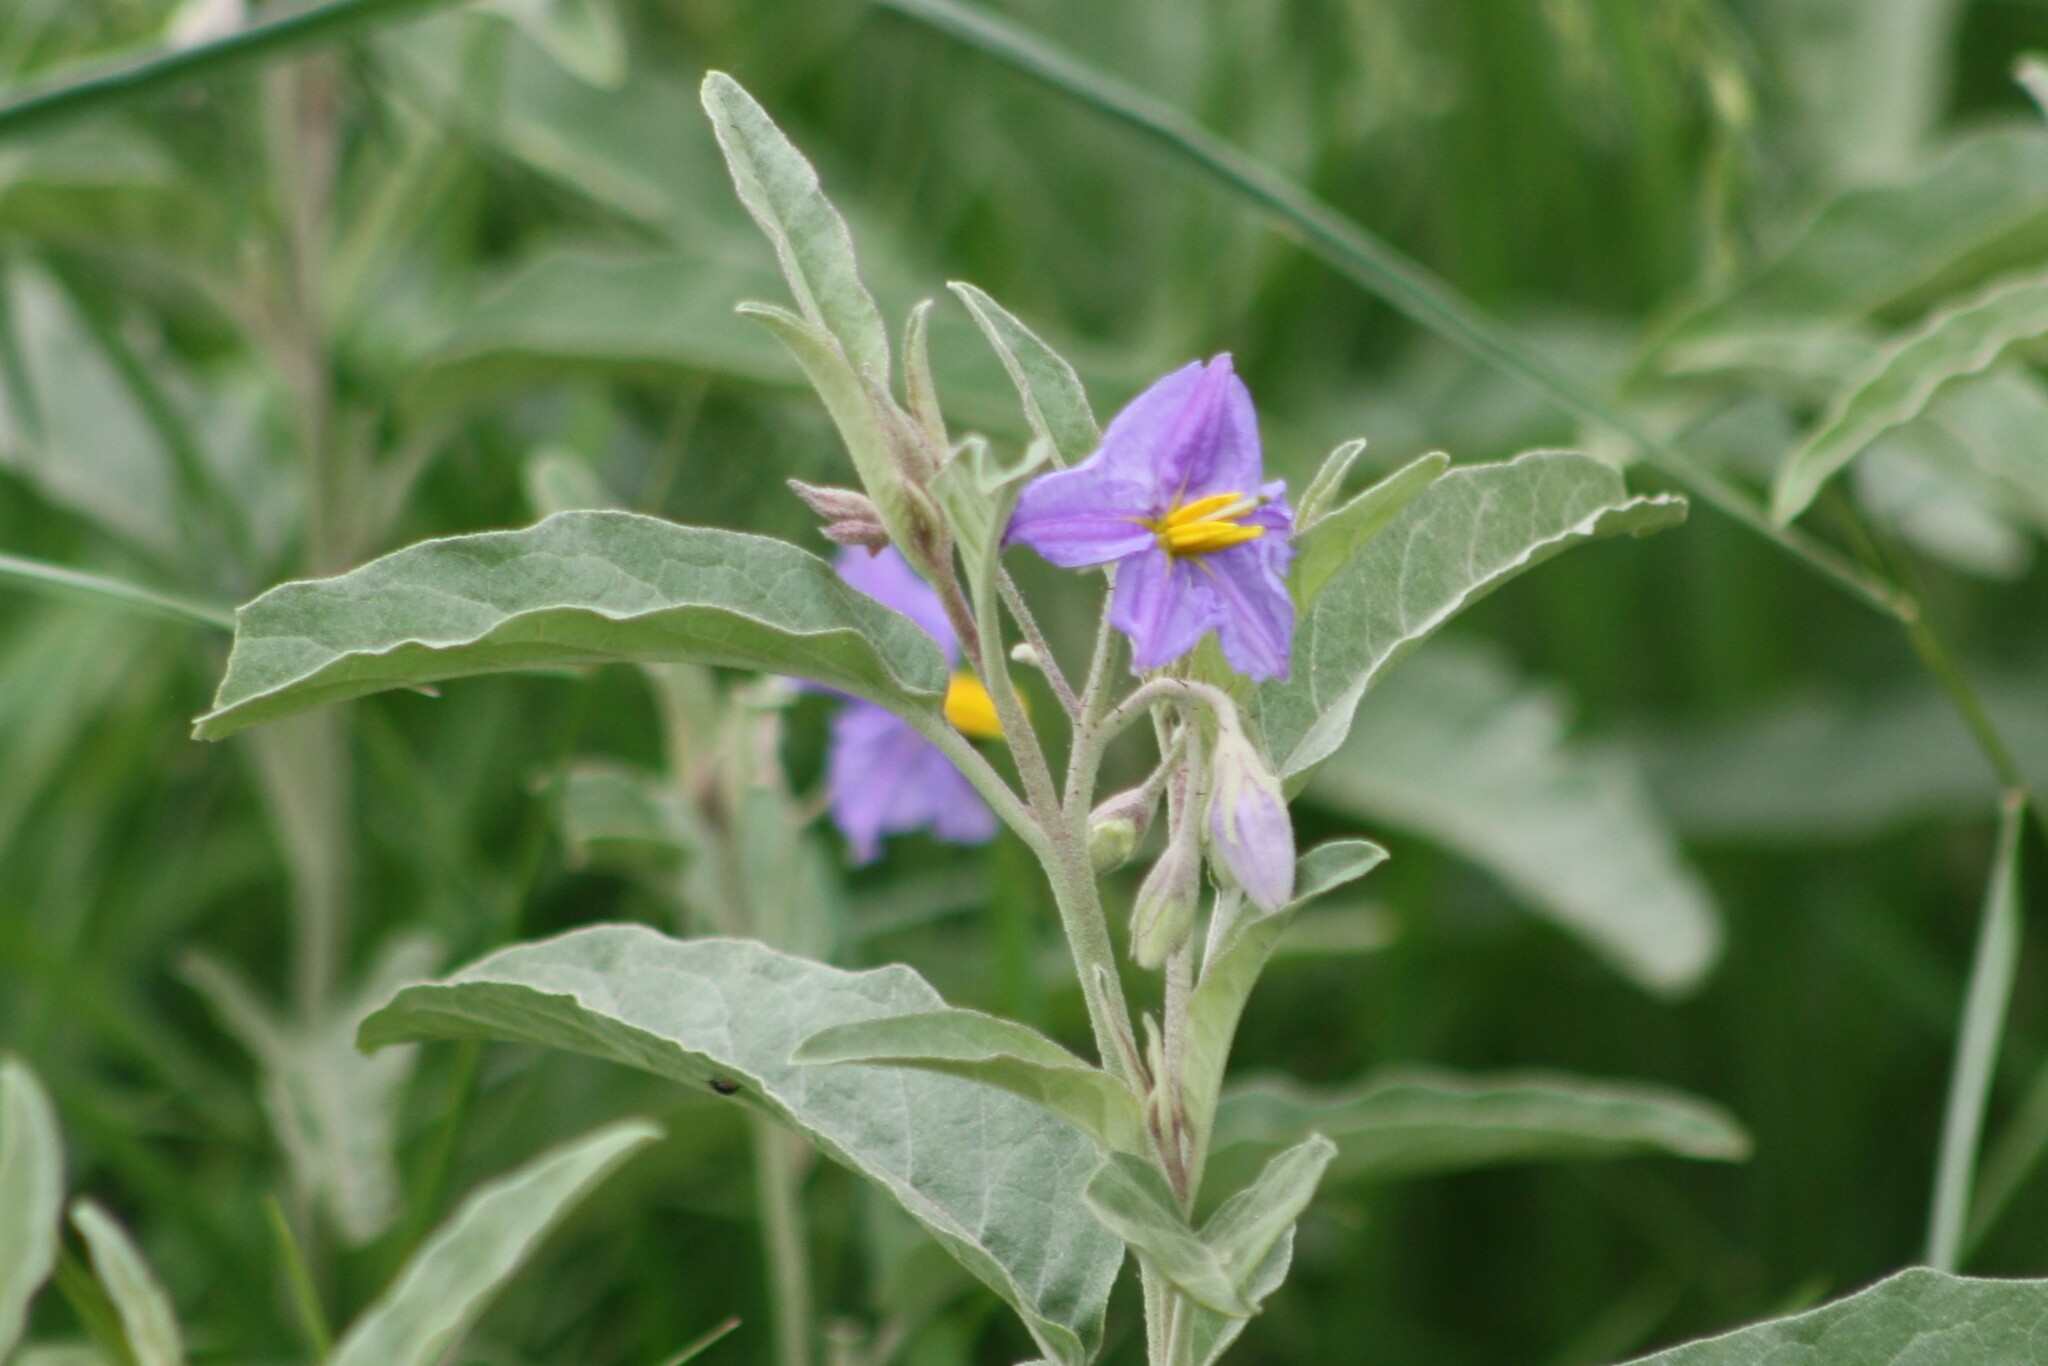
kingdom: Plantae
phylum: Tracheophyta
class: Magnoliopsida
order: Solanales
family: Solanaceae
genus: Solanum
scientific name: Solanum elaeagnifolium
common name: Silverleaf nightshade
